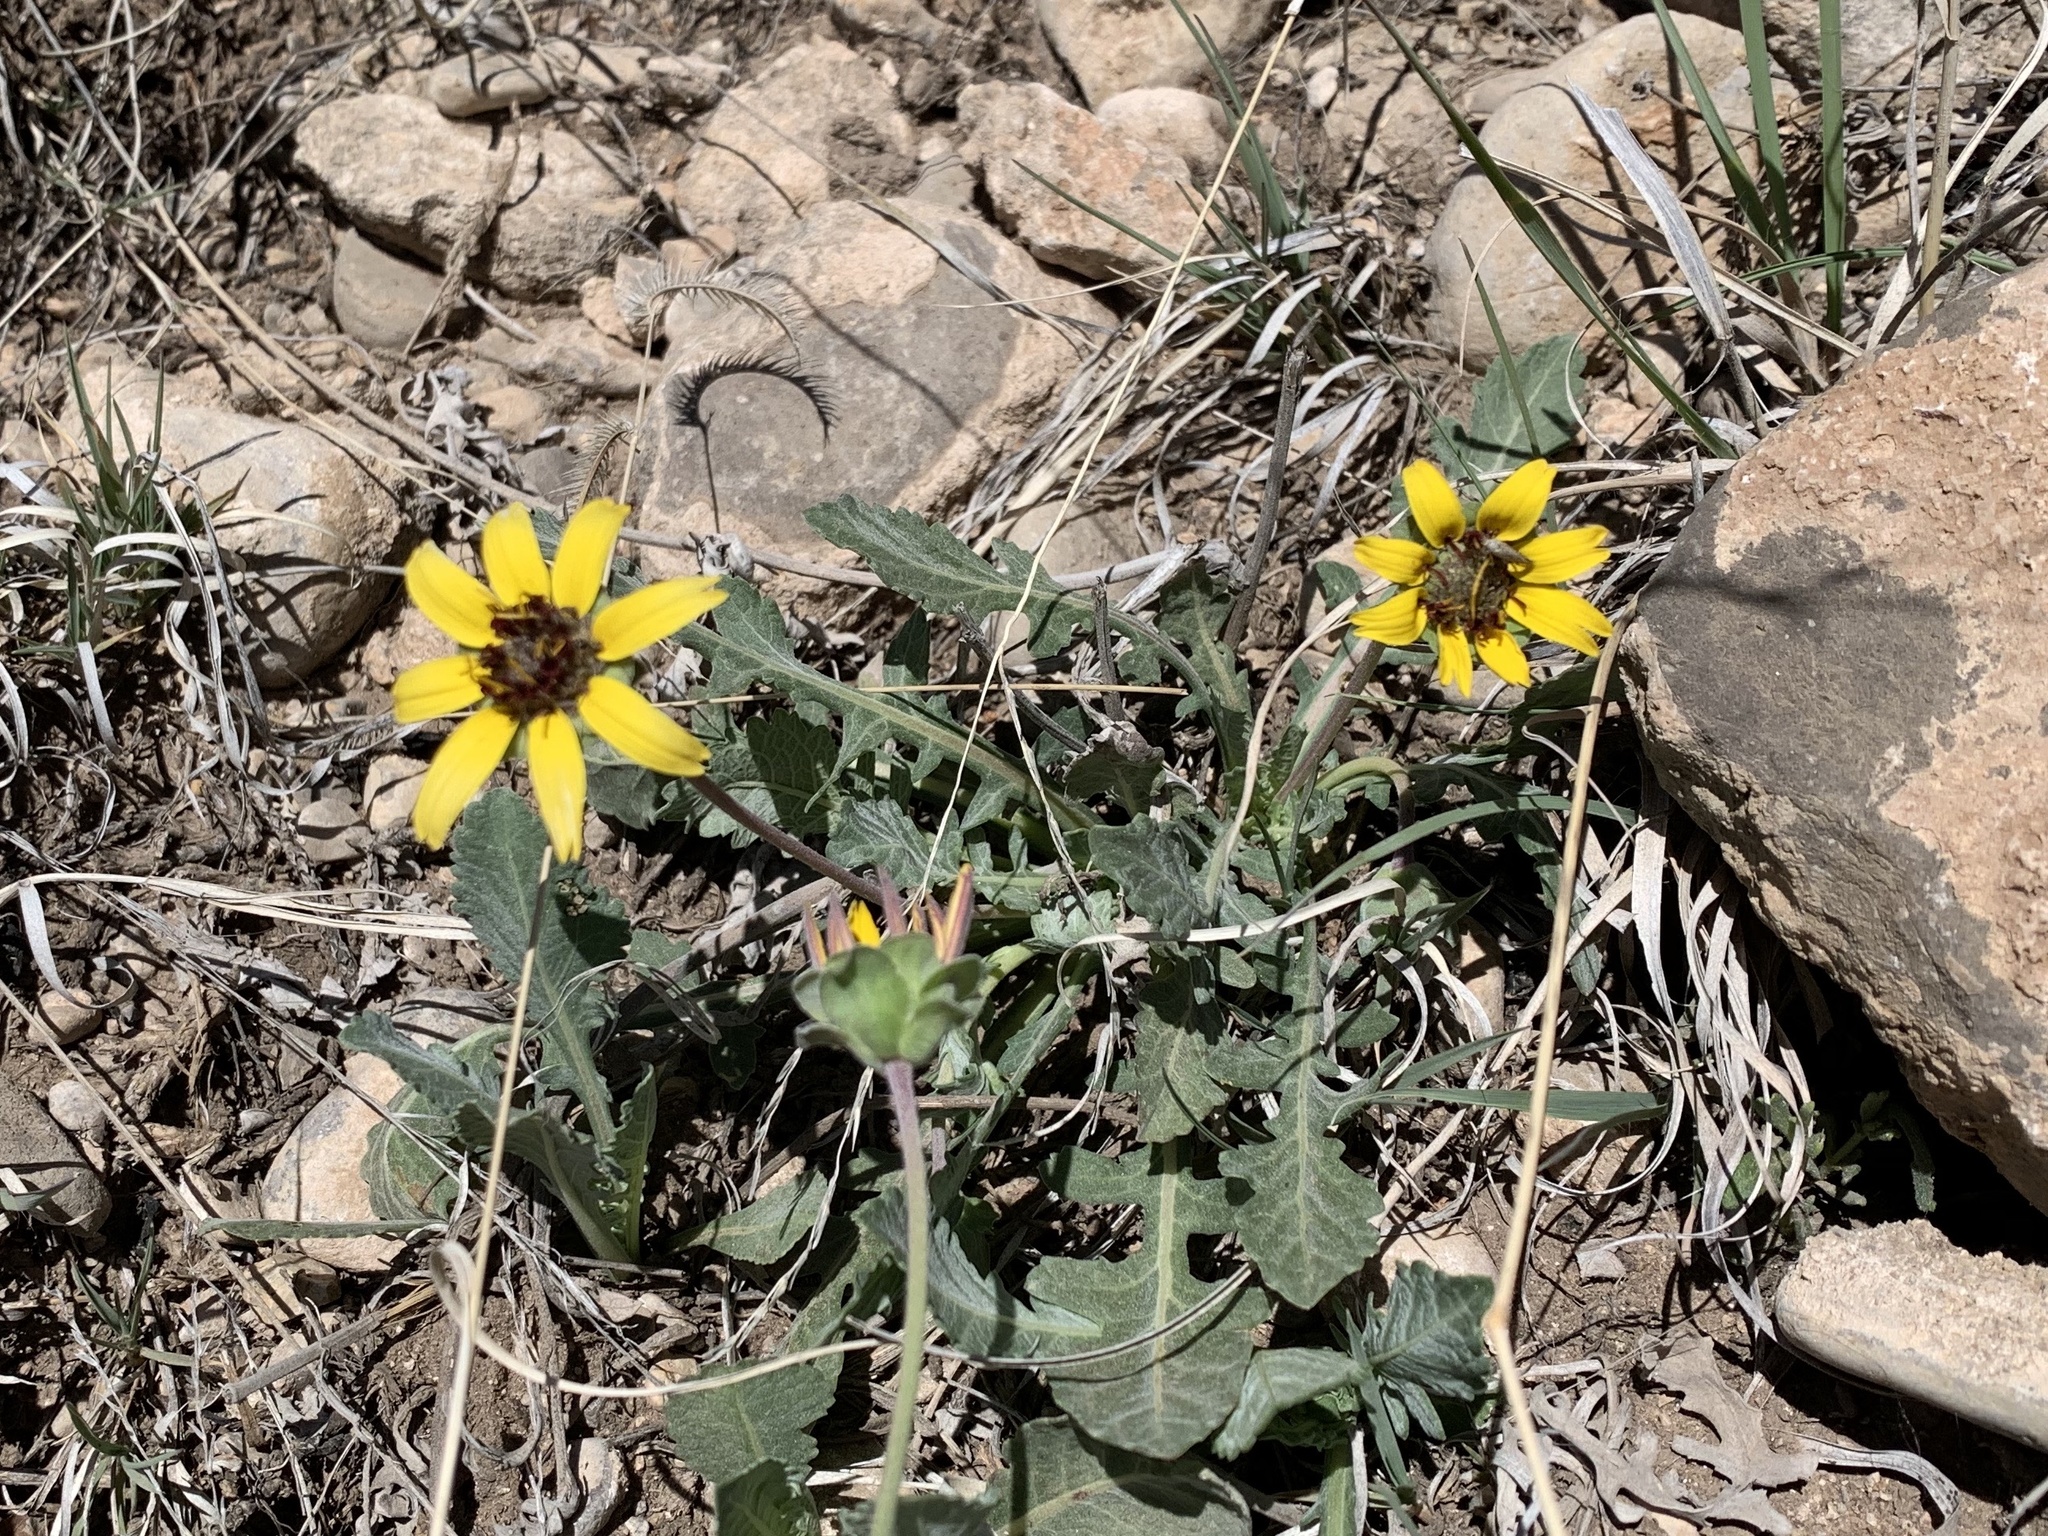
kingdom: Plantae
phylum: Tracheophyta
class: Magnoliopsida
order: Asterales
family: Asteraceae
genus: Berlandiera
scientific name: Berlandiera lyrata
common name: Chocolate-flower
